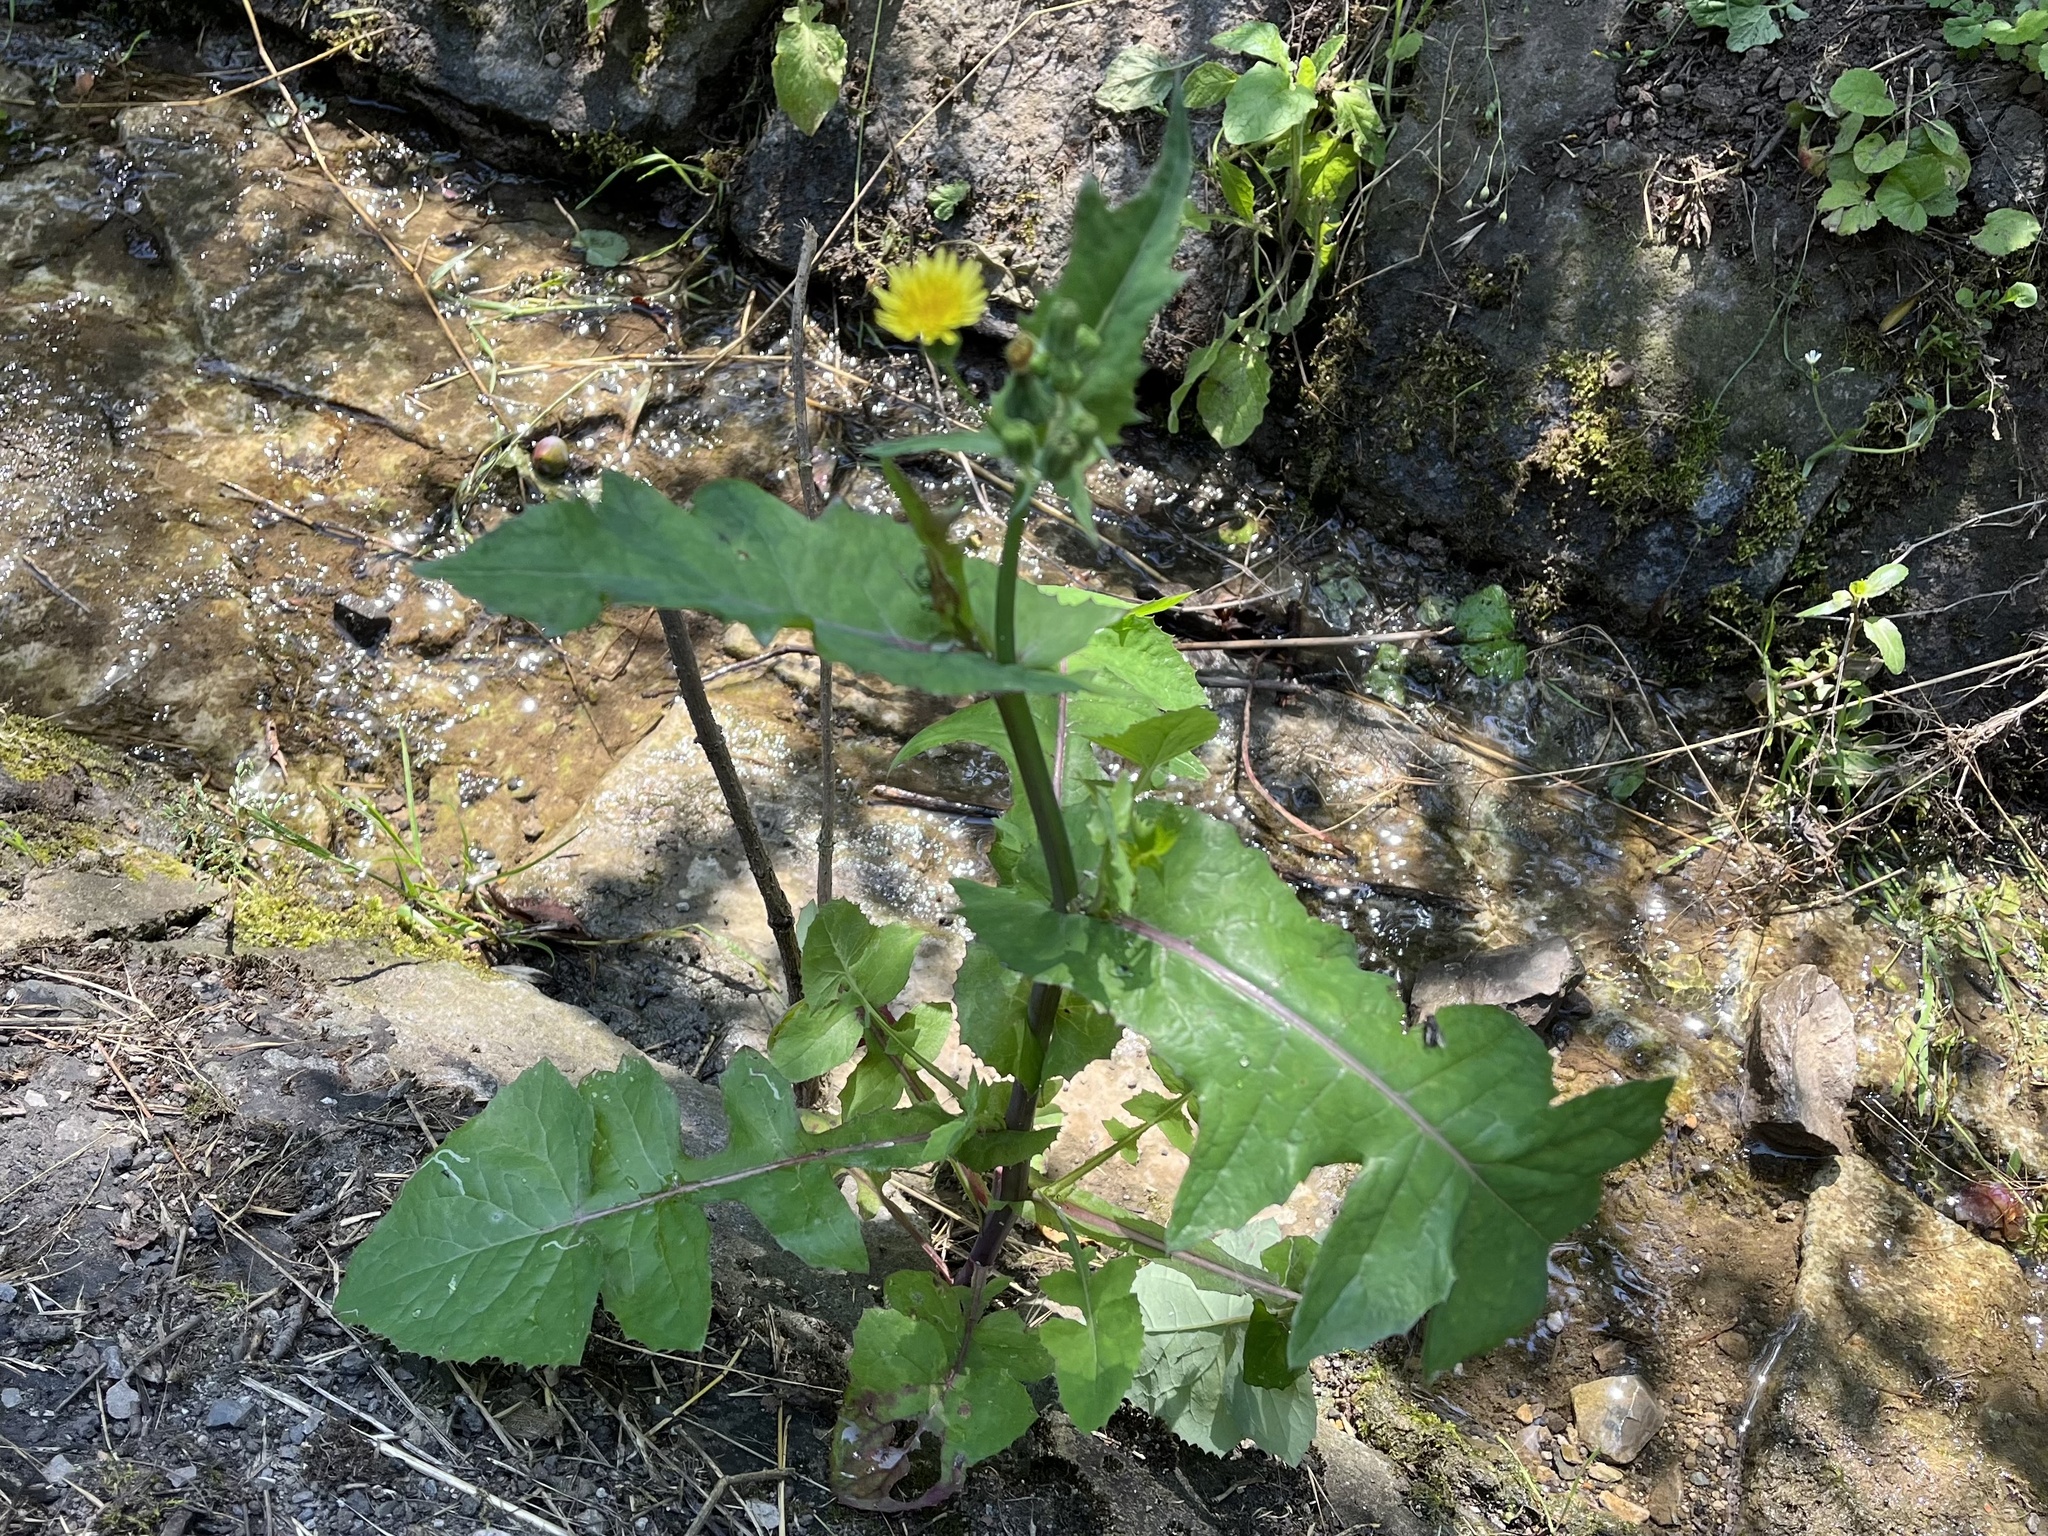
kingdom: Plantae
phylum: Tracheophyta
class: Magnoliopsida
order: Asterales
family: Asteraceae
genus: Sonchus
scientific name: Sonchus oleraceus
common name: Common sowthistle
